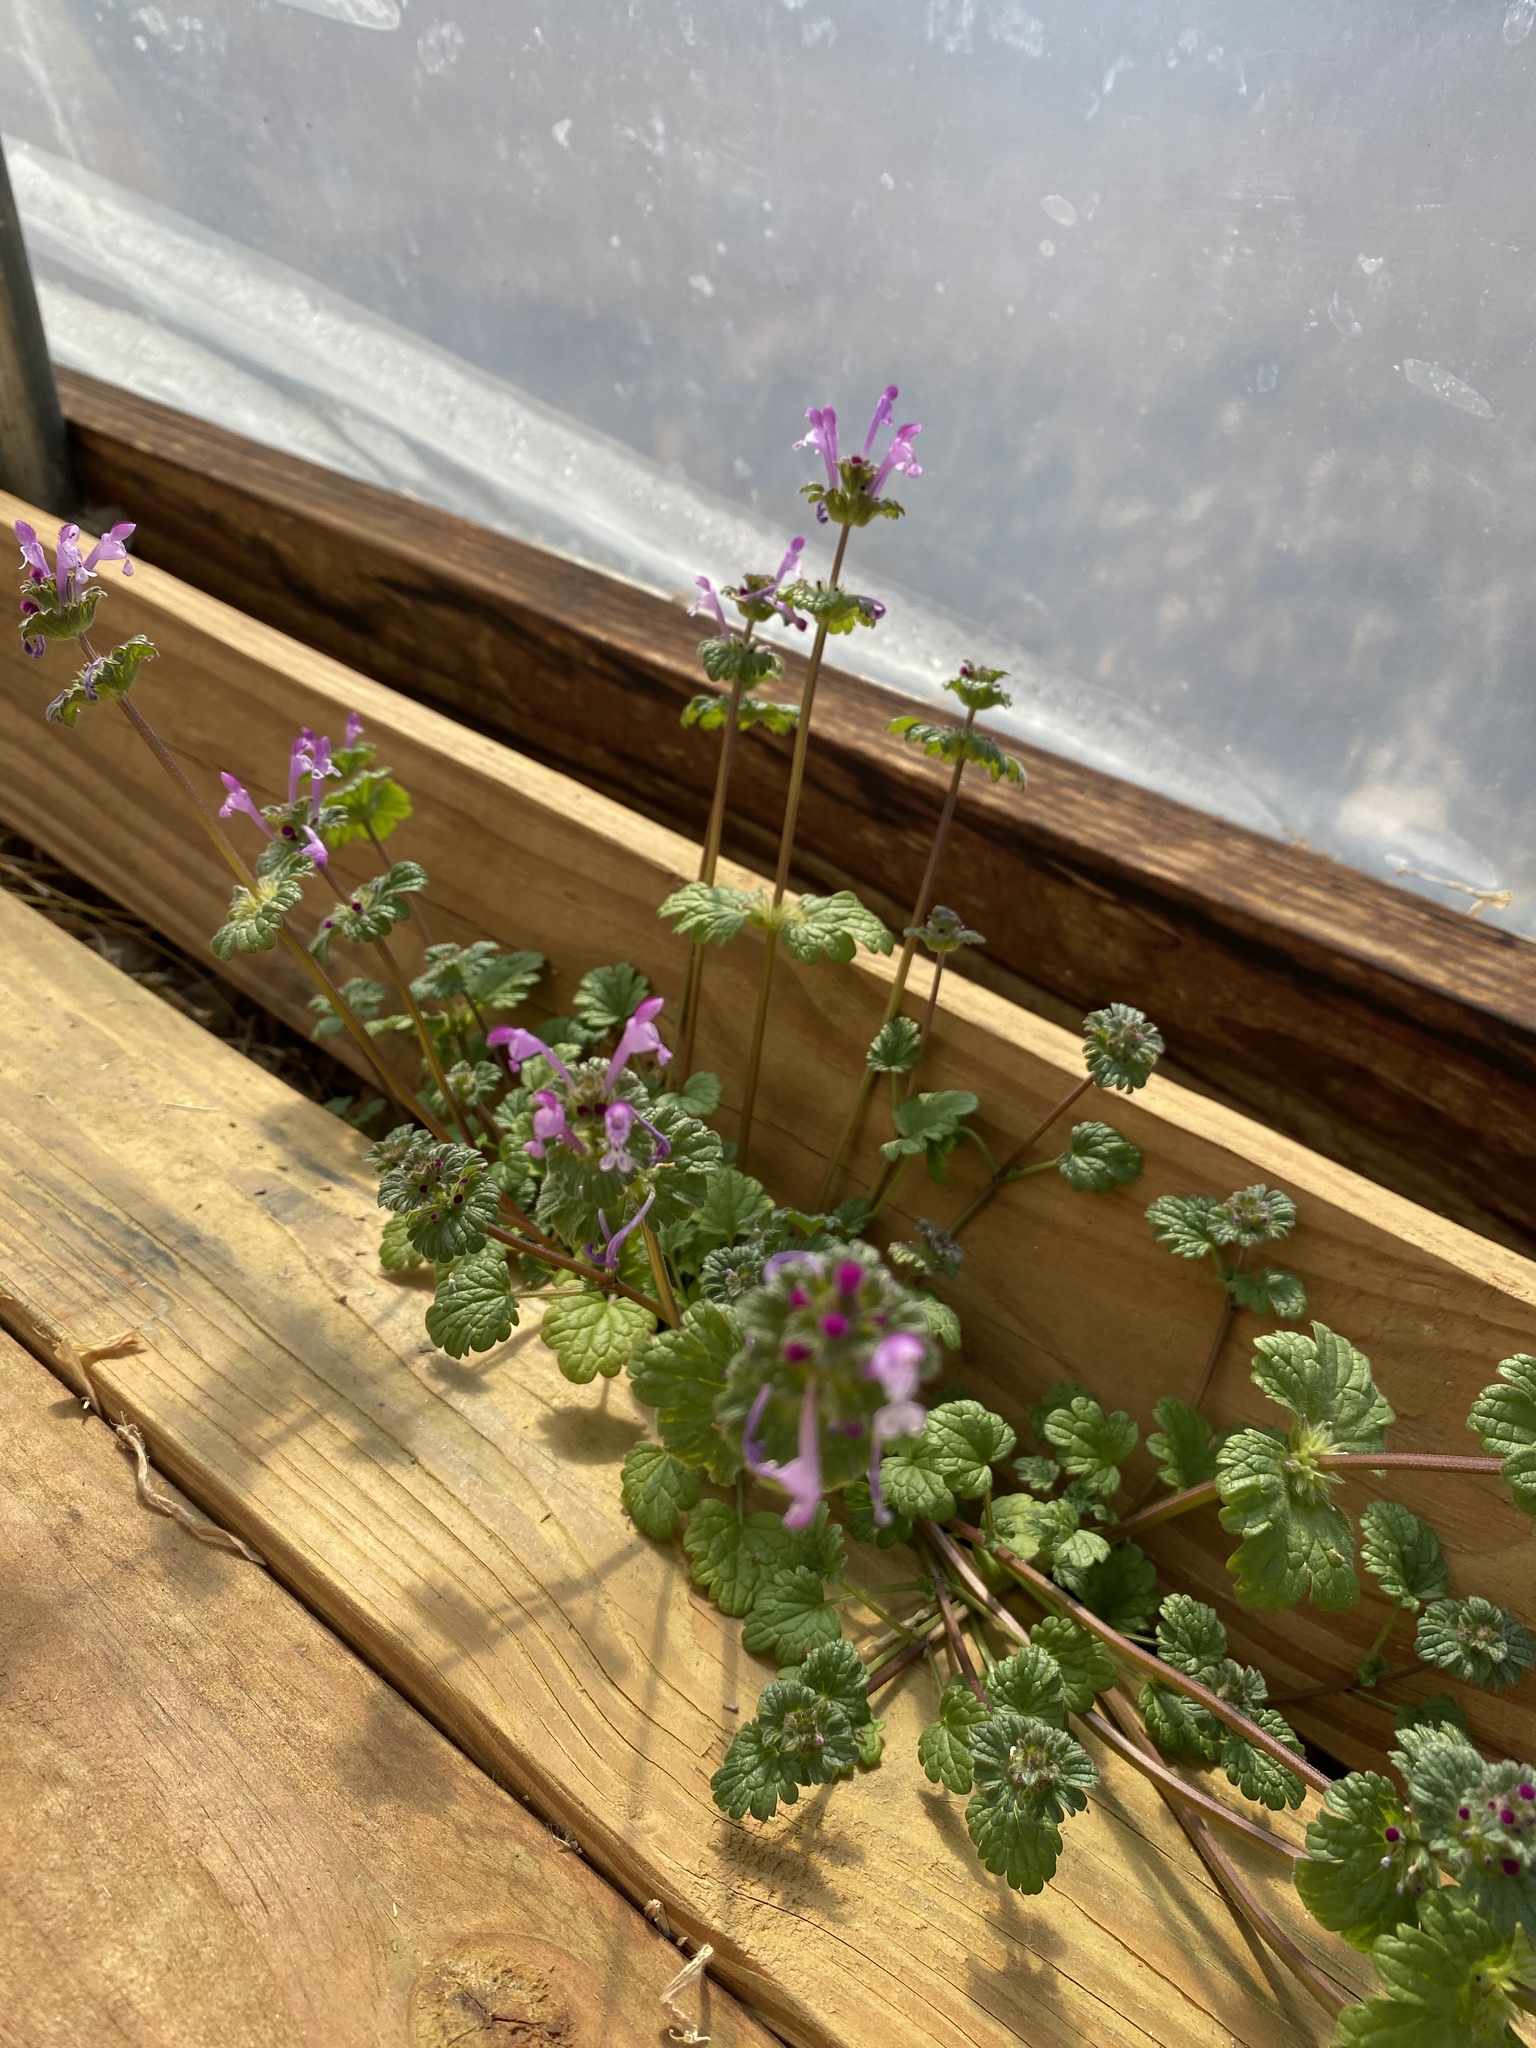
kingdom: Plantae
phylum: Tracheophyta
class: Magnoliopsida
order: Lamiales
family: Lamiaceae
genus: Lamium
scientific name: Lamium amplexicaule
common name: Henbit dead-nettle
